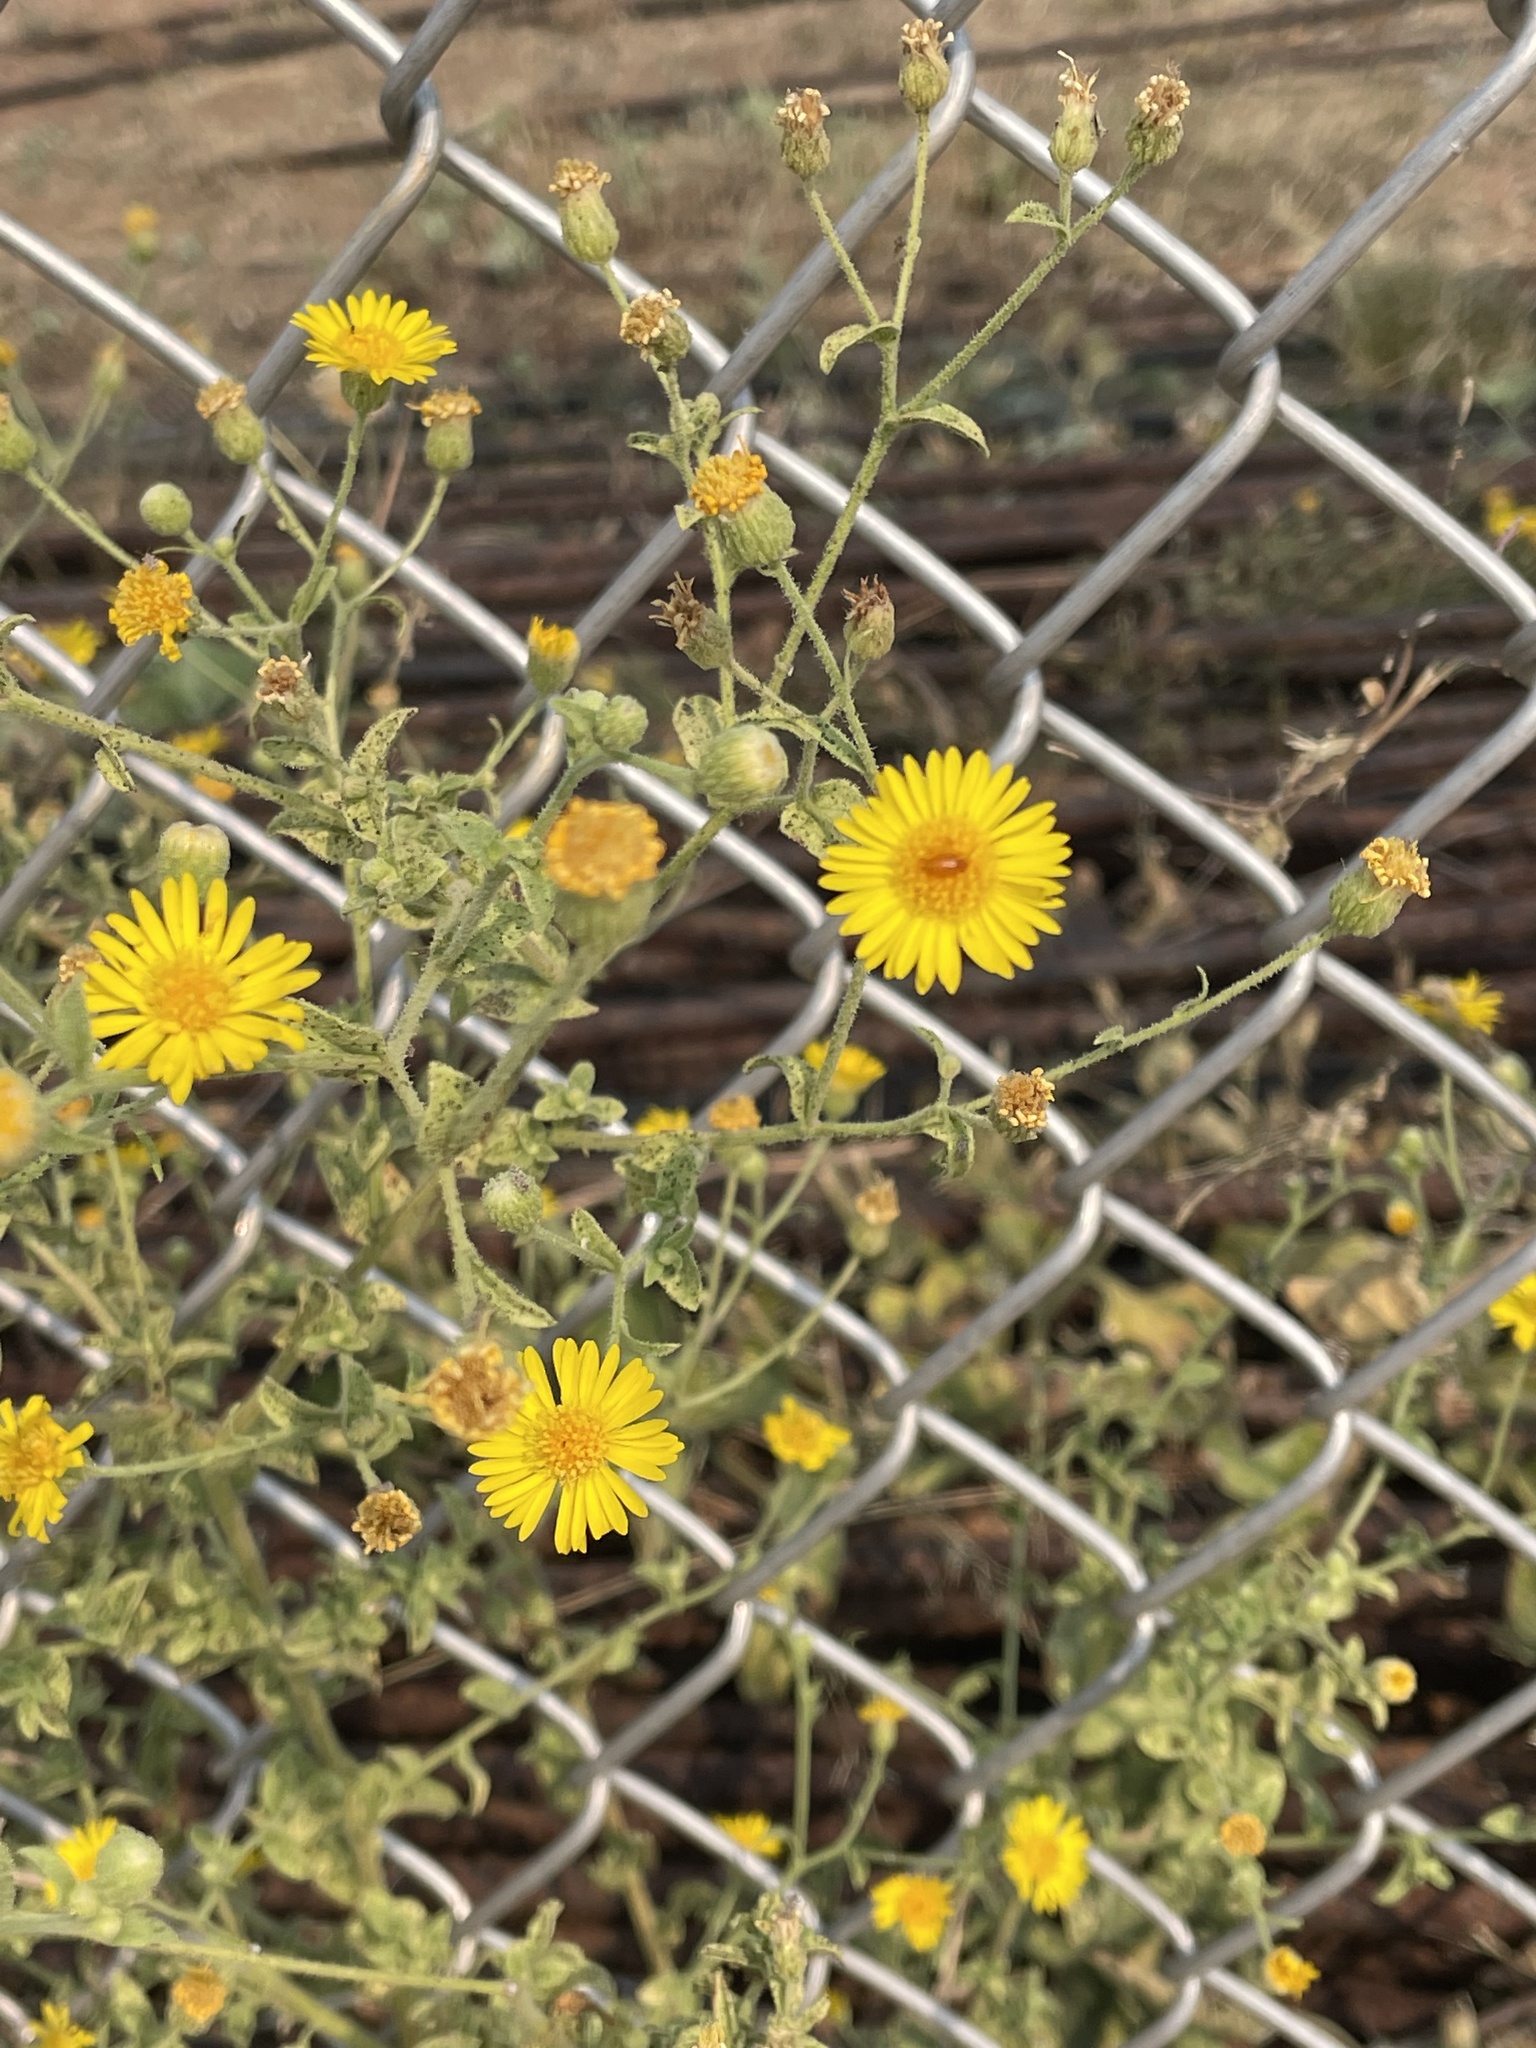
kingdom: Plantae
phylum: Tracheophyta
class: Magnoliopsida
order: Asterales
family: Asteraceae
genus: Heterotheca
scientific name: Heterotheca subaxillaris
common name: Camphorweed
